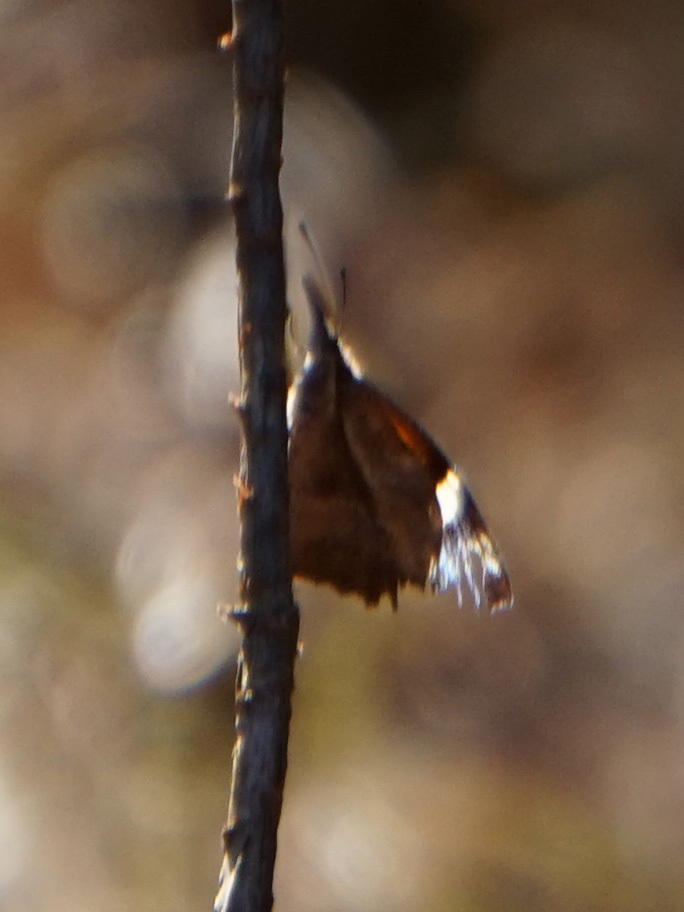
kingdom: Animalia
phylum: Arthropoda
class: Insecta
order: Lepidoptera
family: Nymphalidae
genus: Libytheana
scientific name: Libytheana carinenta
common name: American snout
